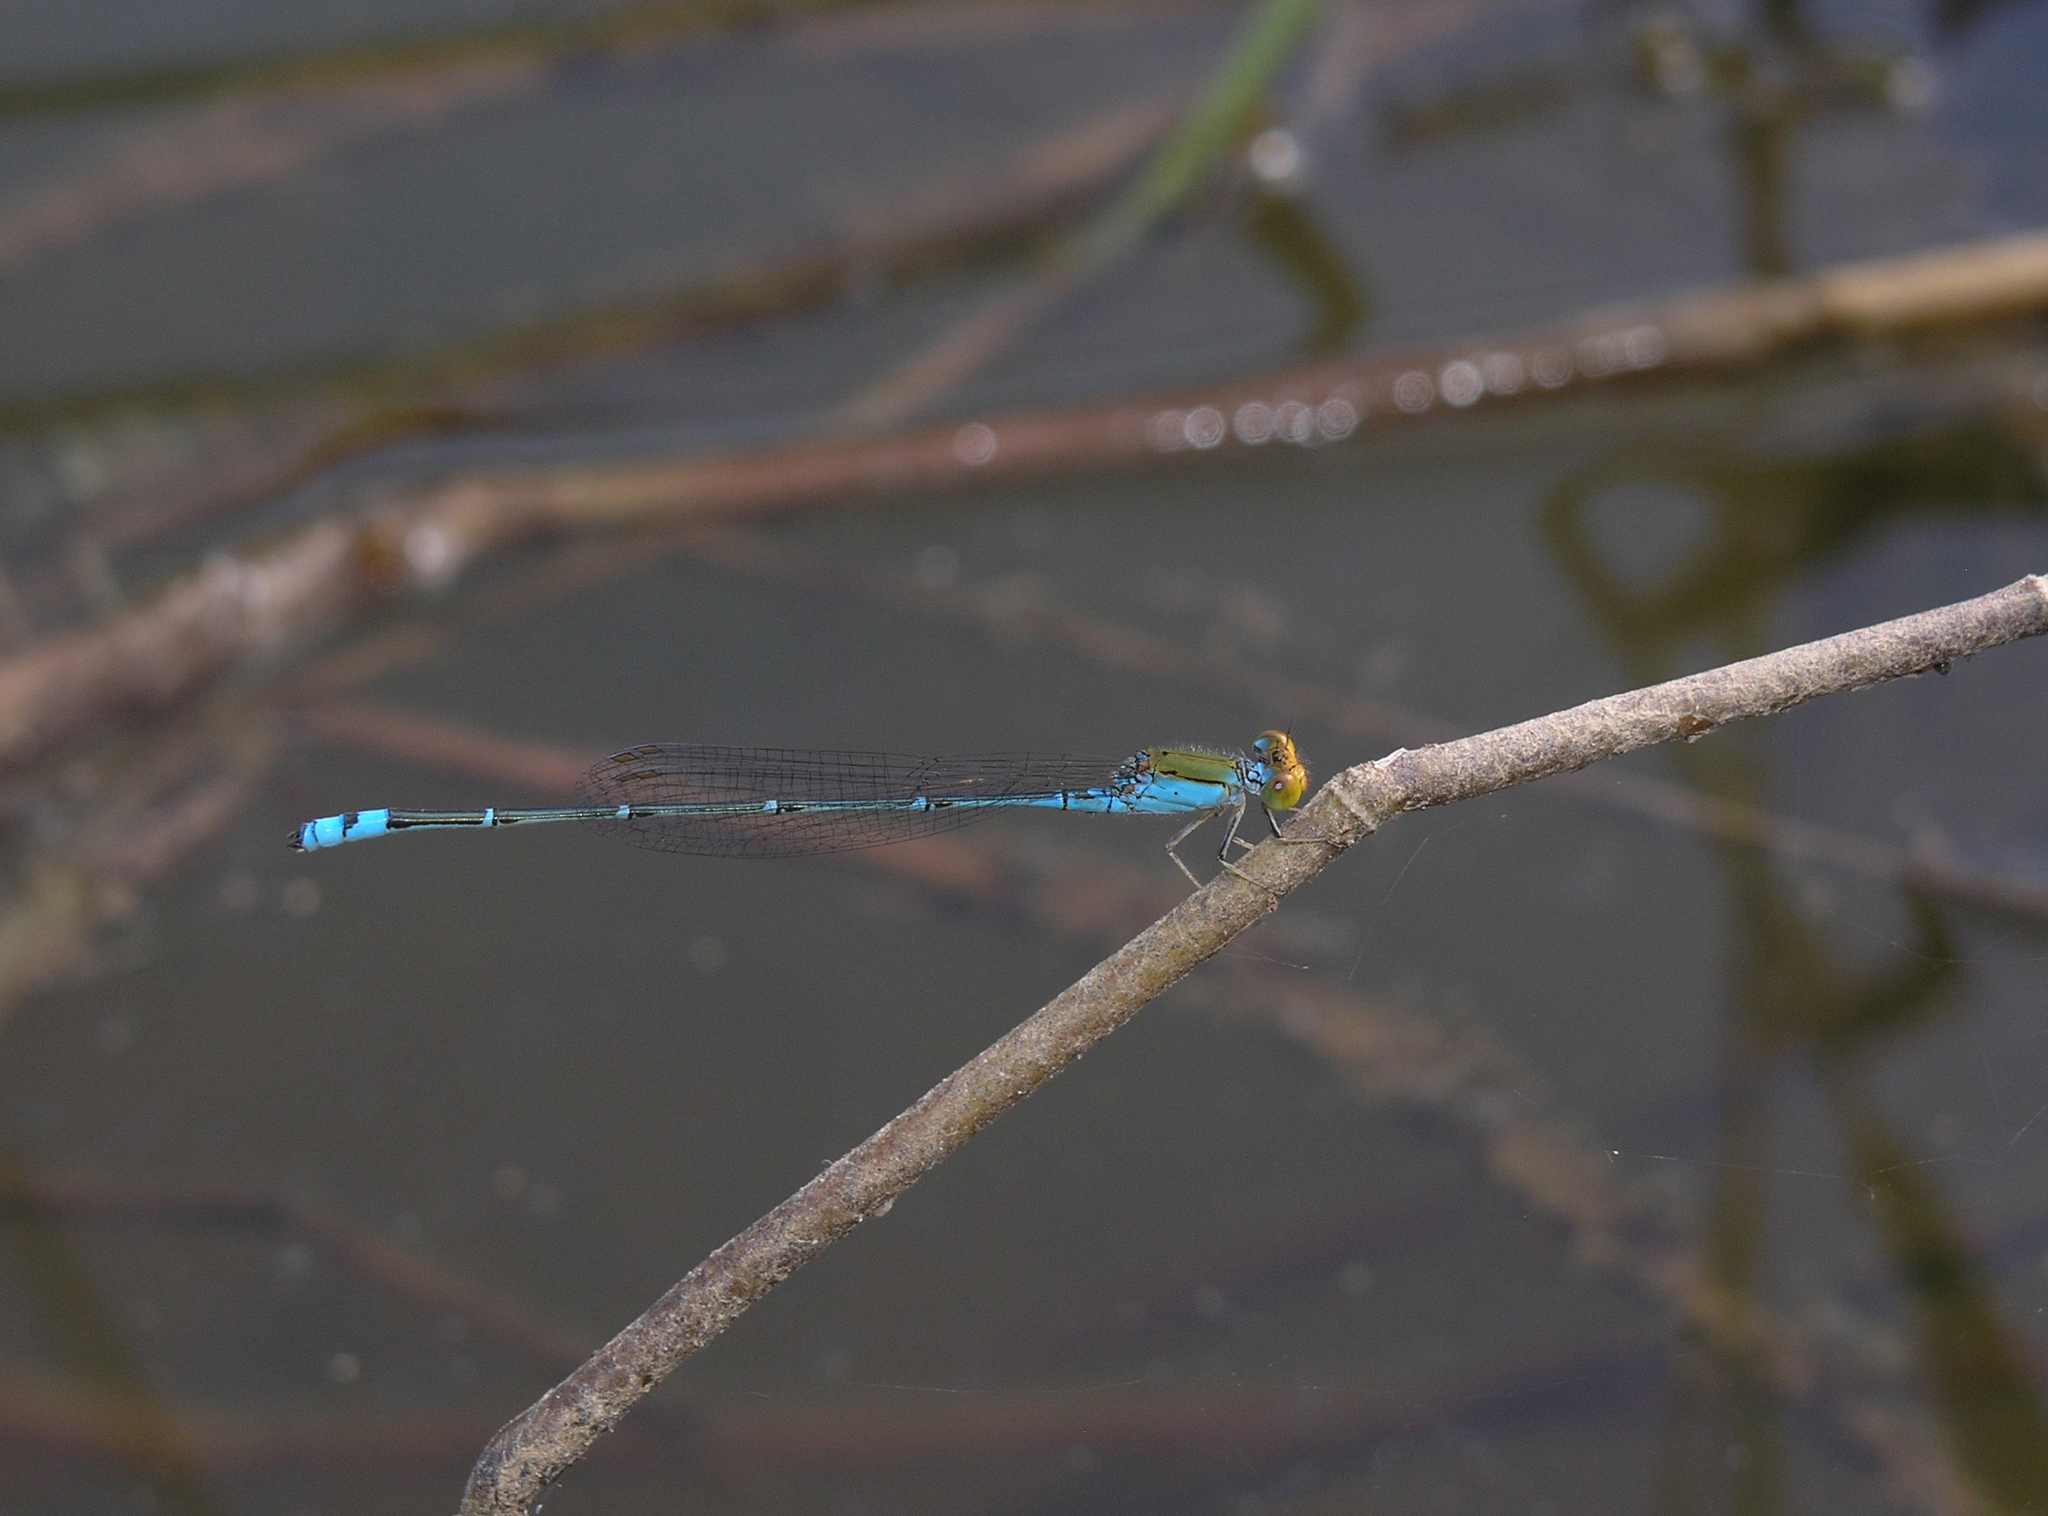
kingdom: Animalia
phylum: Arthropoda
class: Insecta
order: Odonata
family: Coenagrionidae
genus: Pseudagrion
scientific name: Pseudagrion rubriceps
